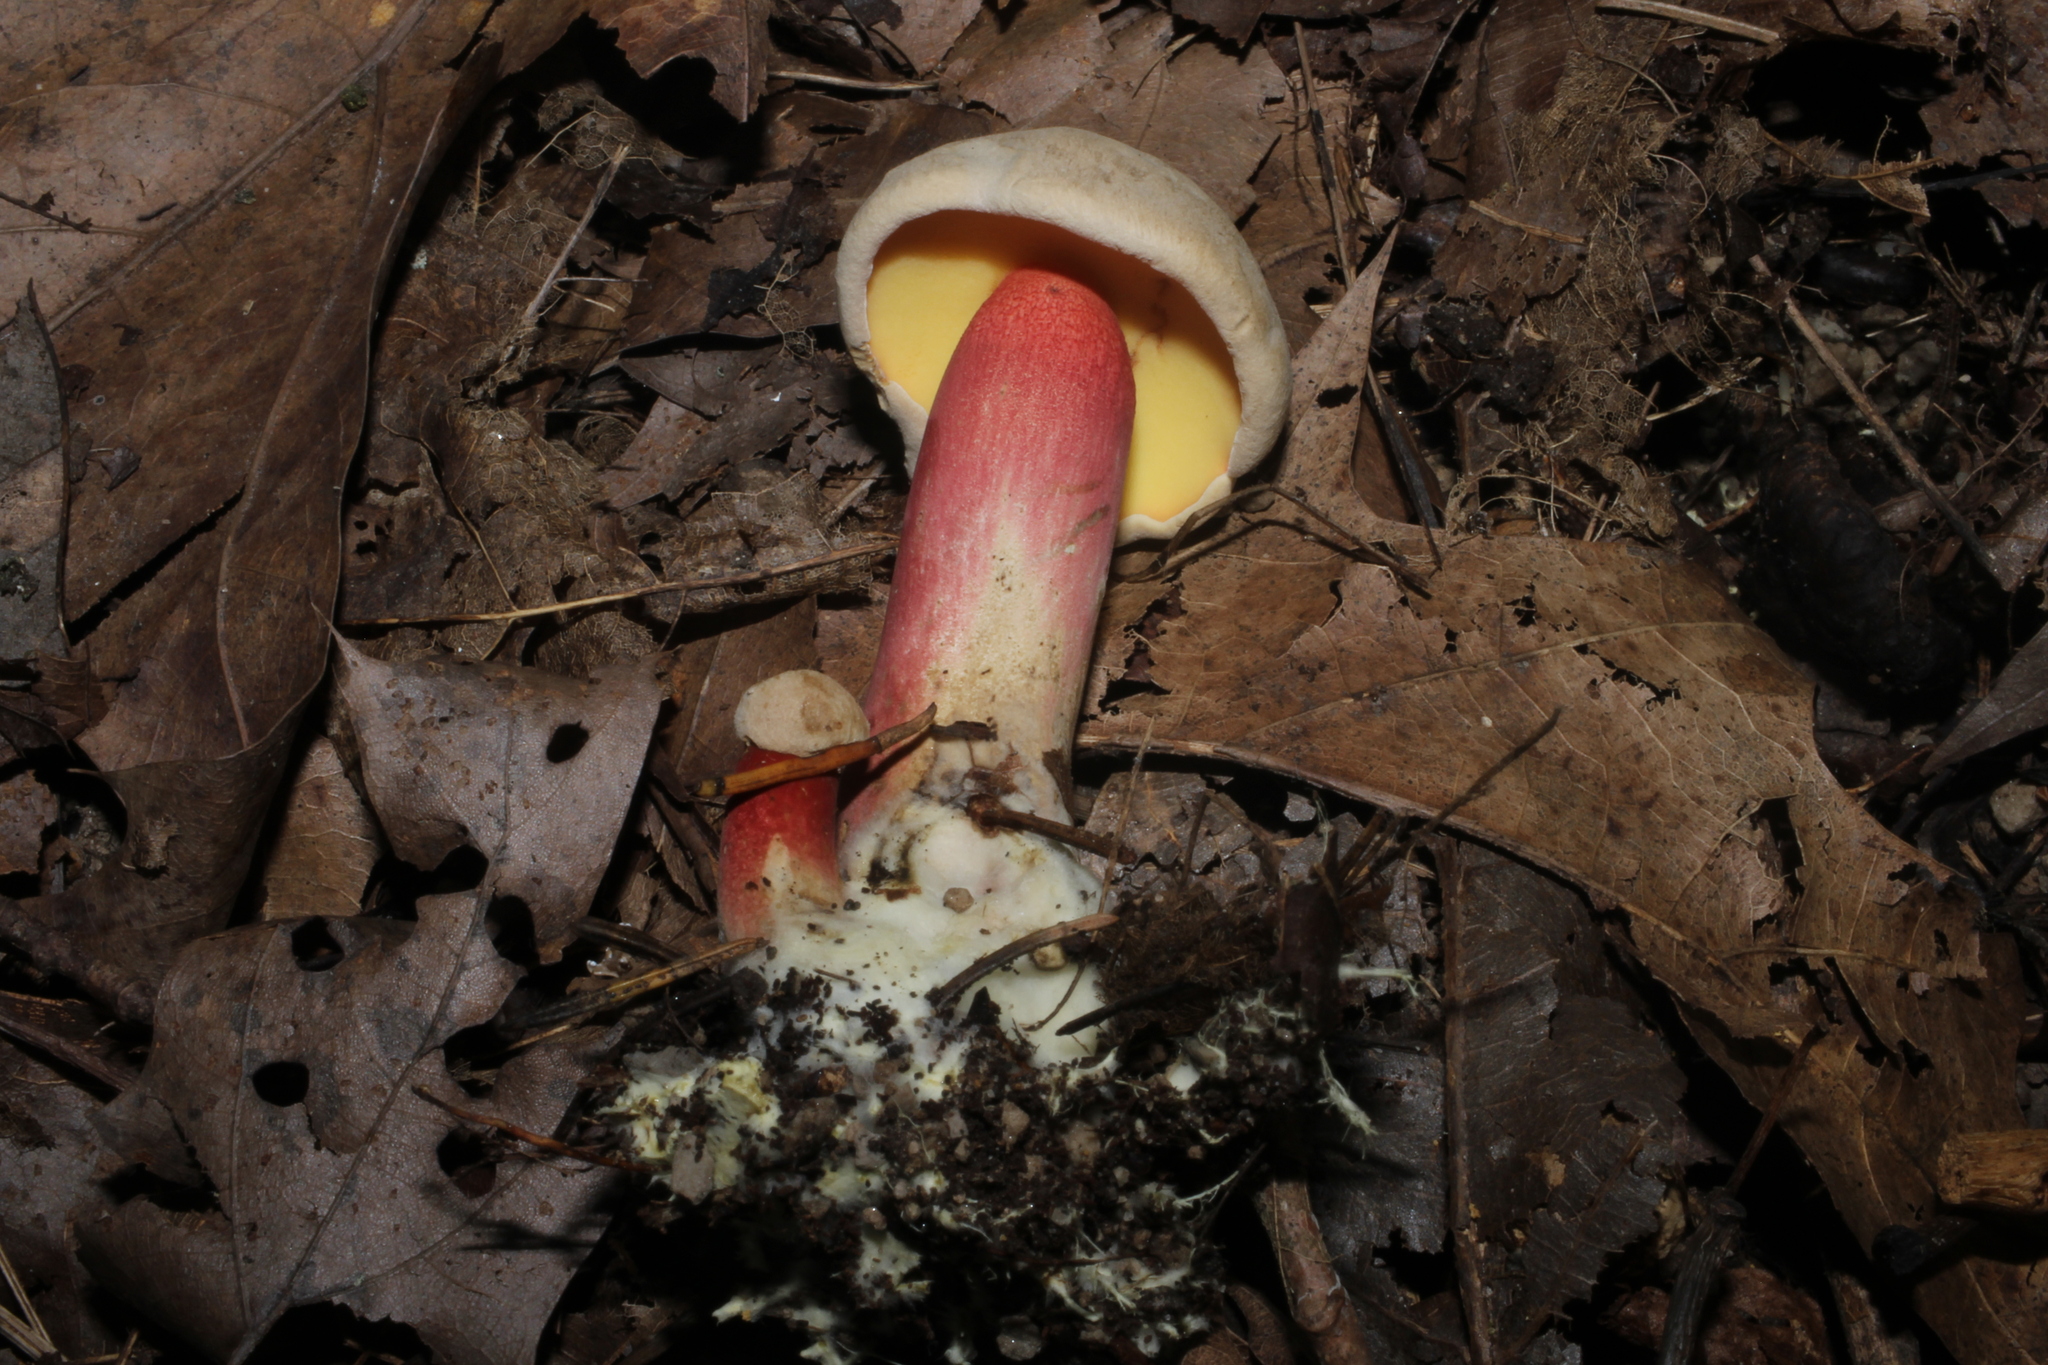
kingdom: Fungi
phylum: Basidiomycota
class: Agaricomycetes
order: Boletales
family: Boletaceae
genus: Caloboletus
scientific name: Caloboletus inedulis
